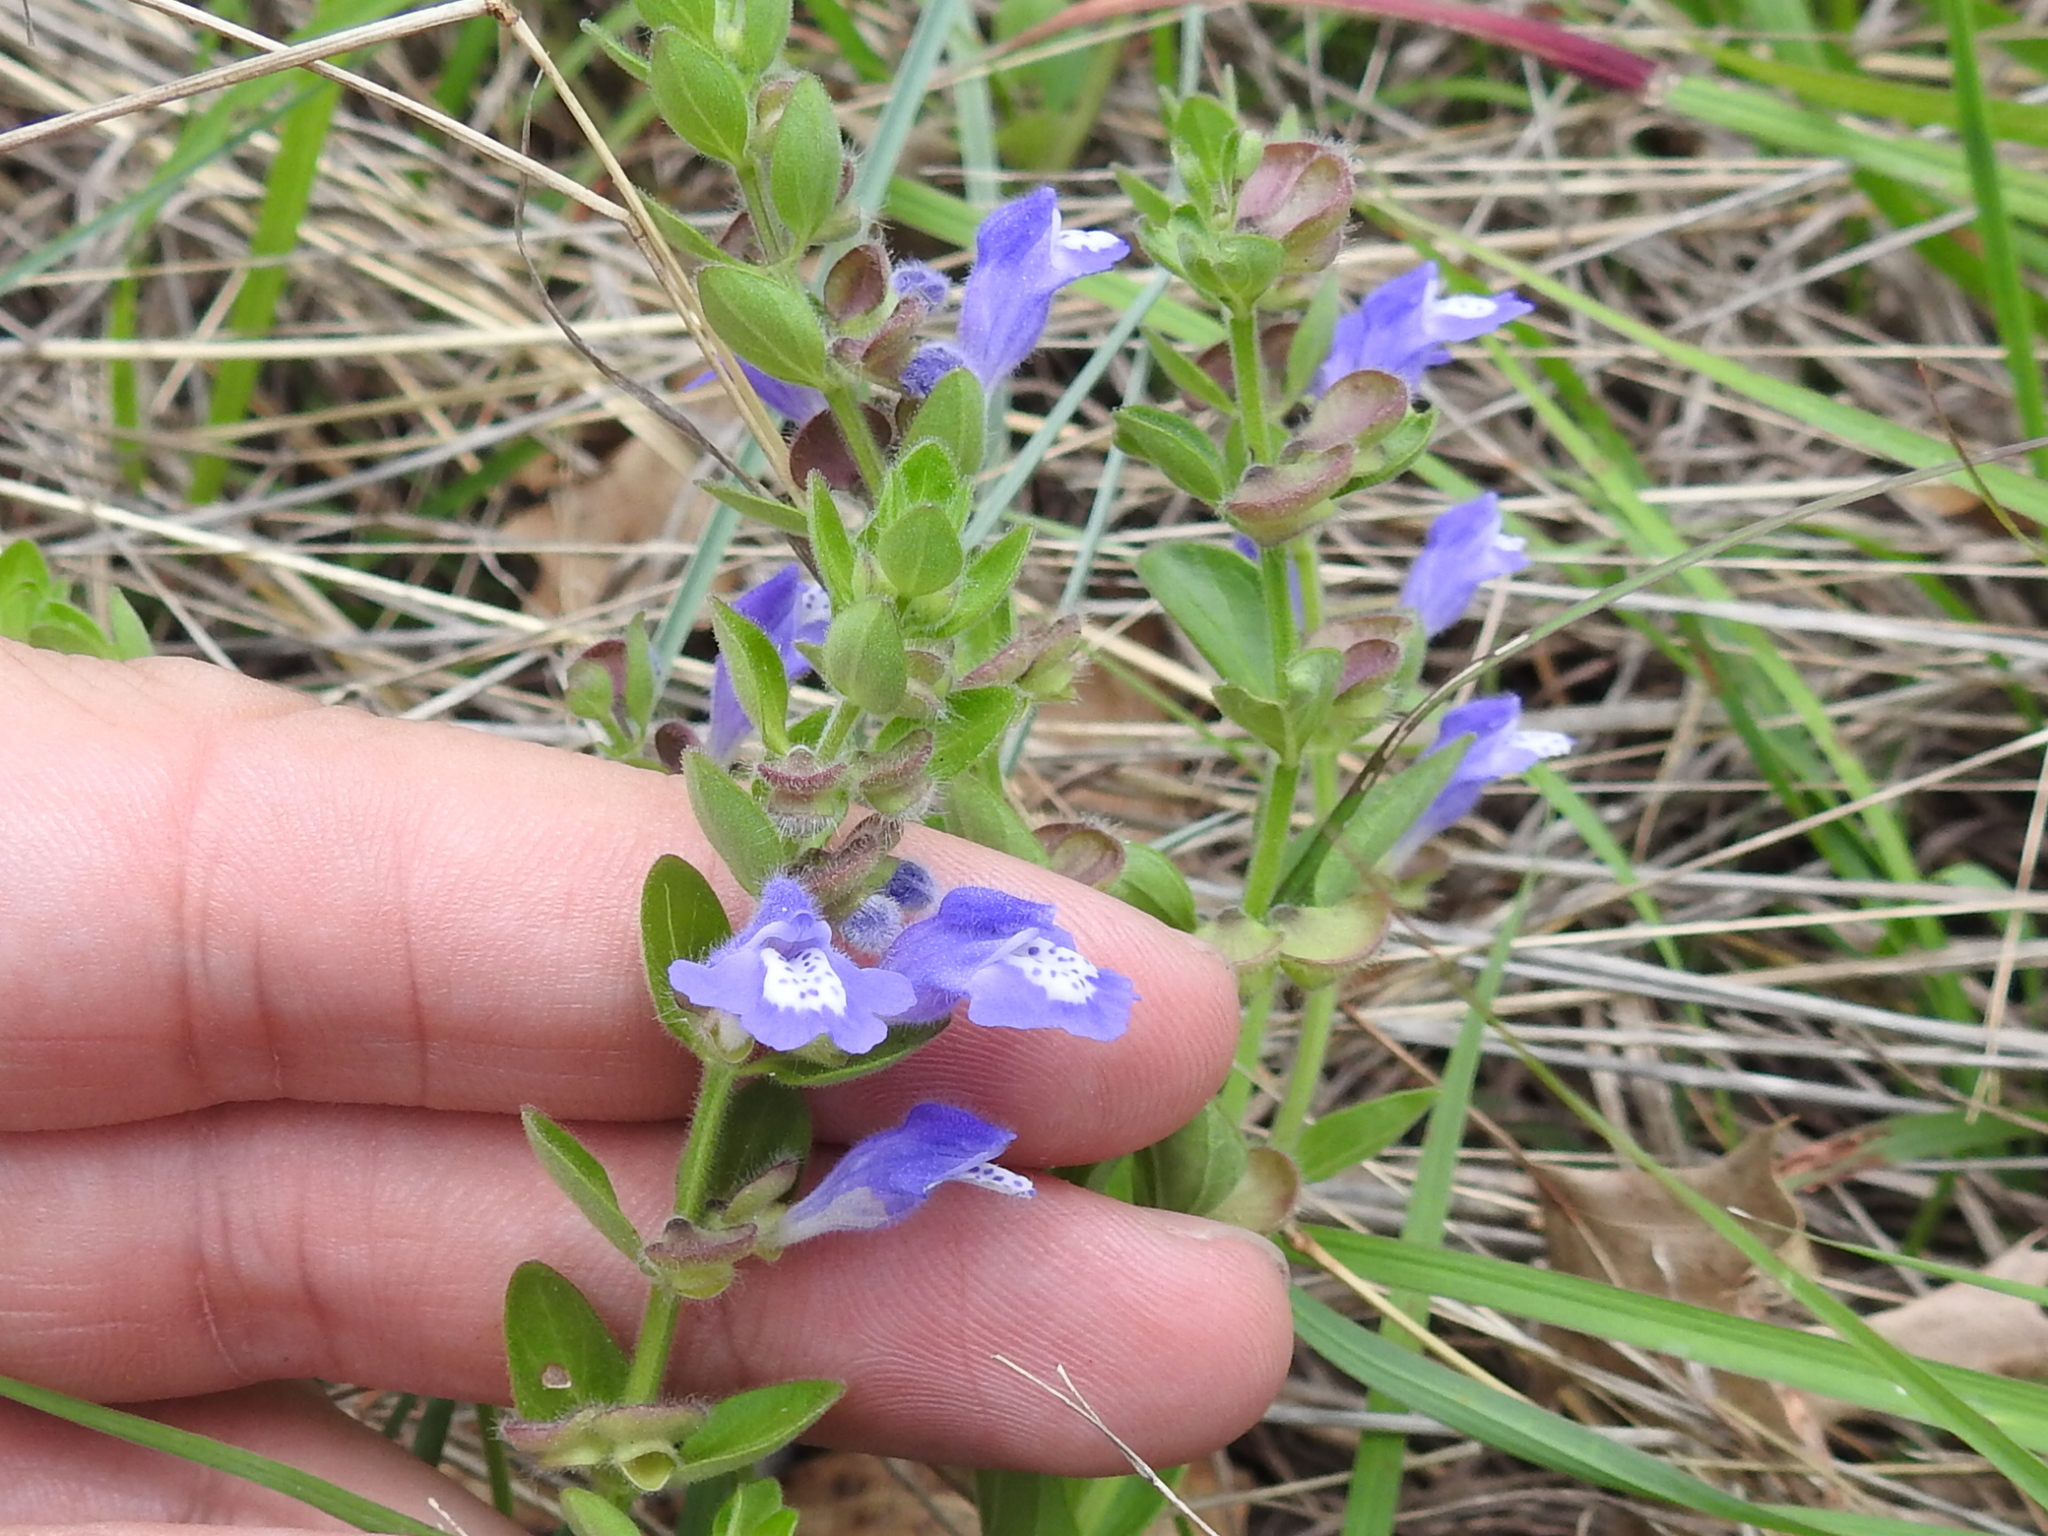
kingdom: Plantae
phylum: Tracheophyta
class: Magnoliopsida
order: Lamiales
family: Lamiaceae
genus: Scutellaria
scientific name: Scutellaria drummondii
